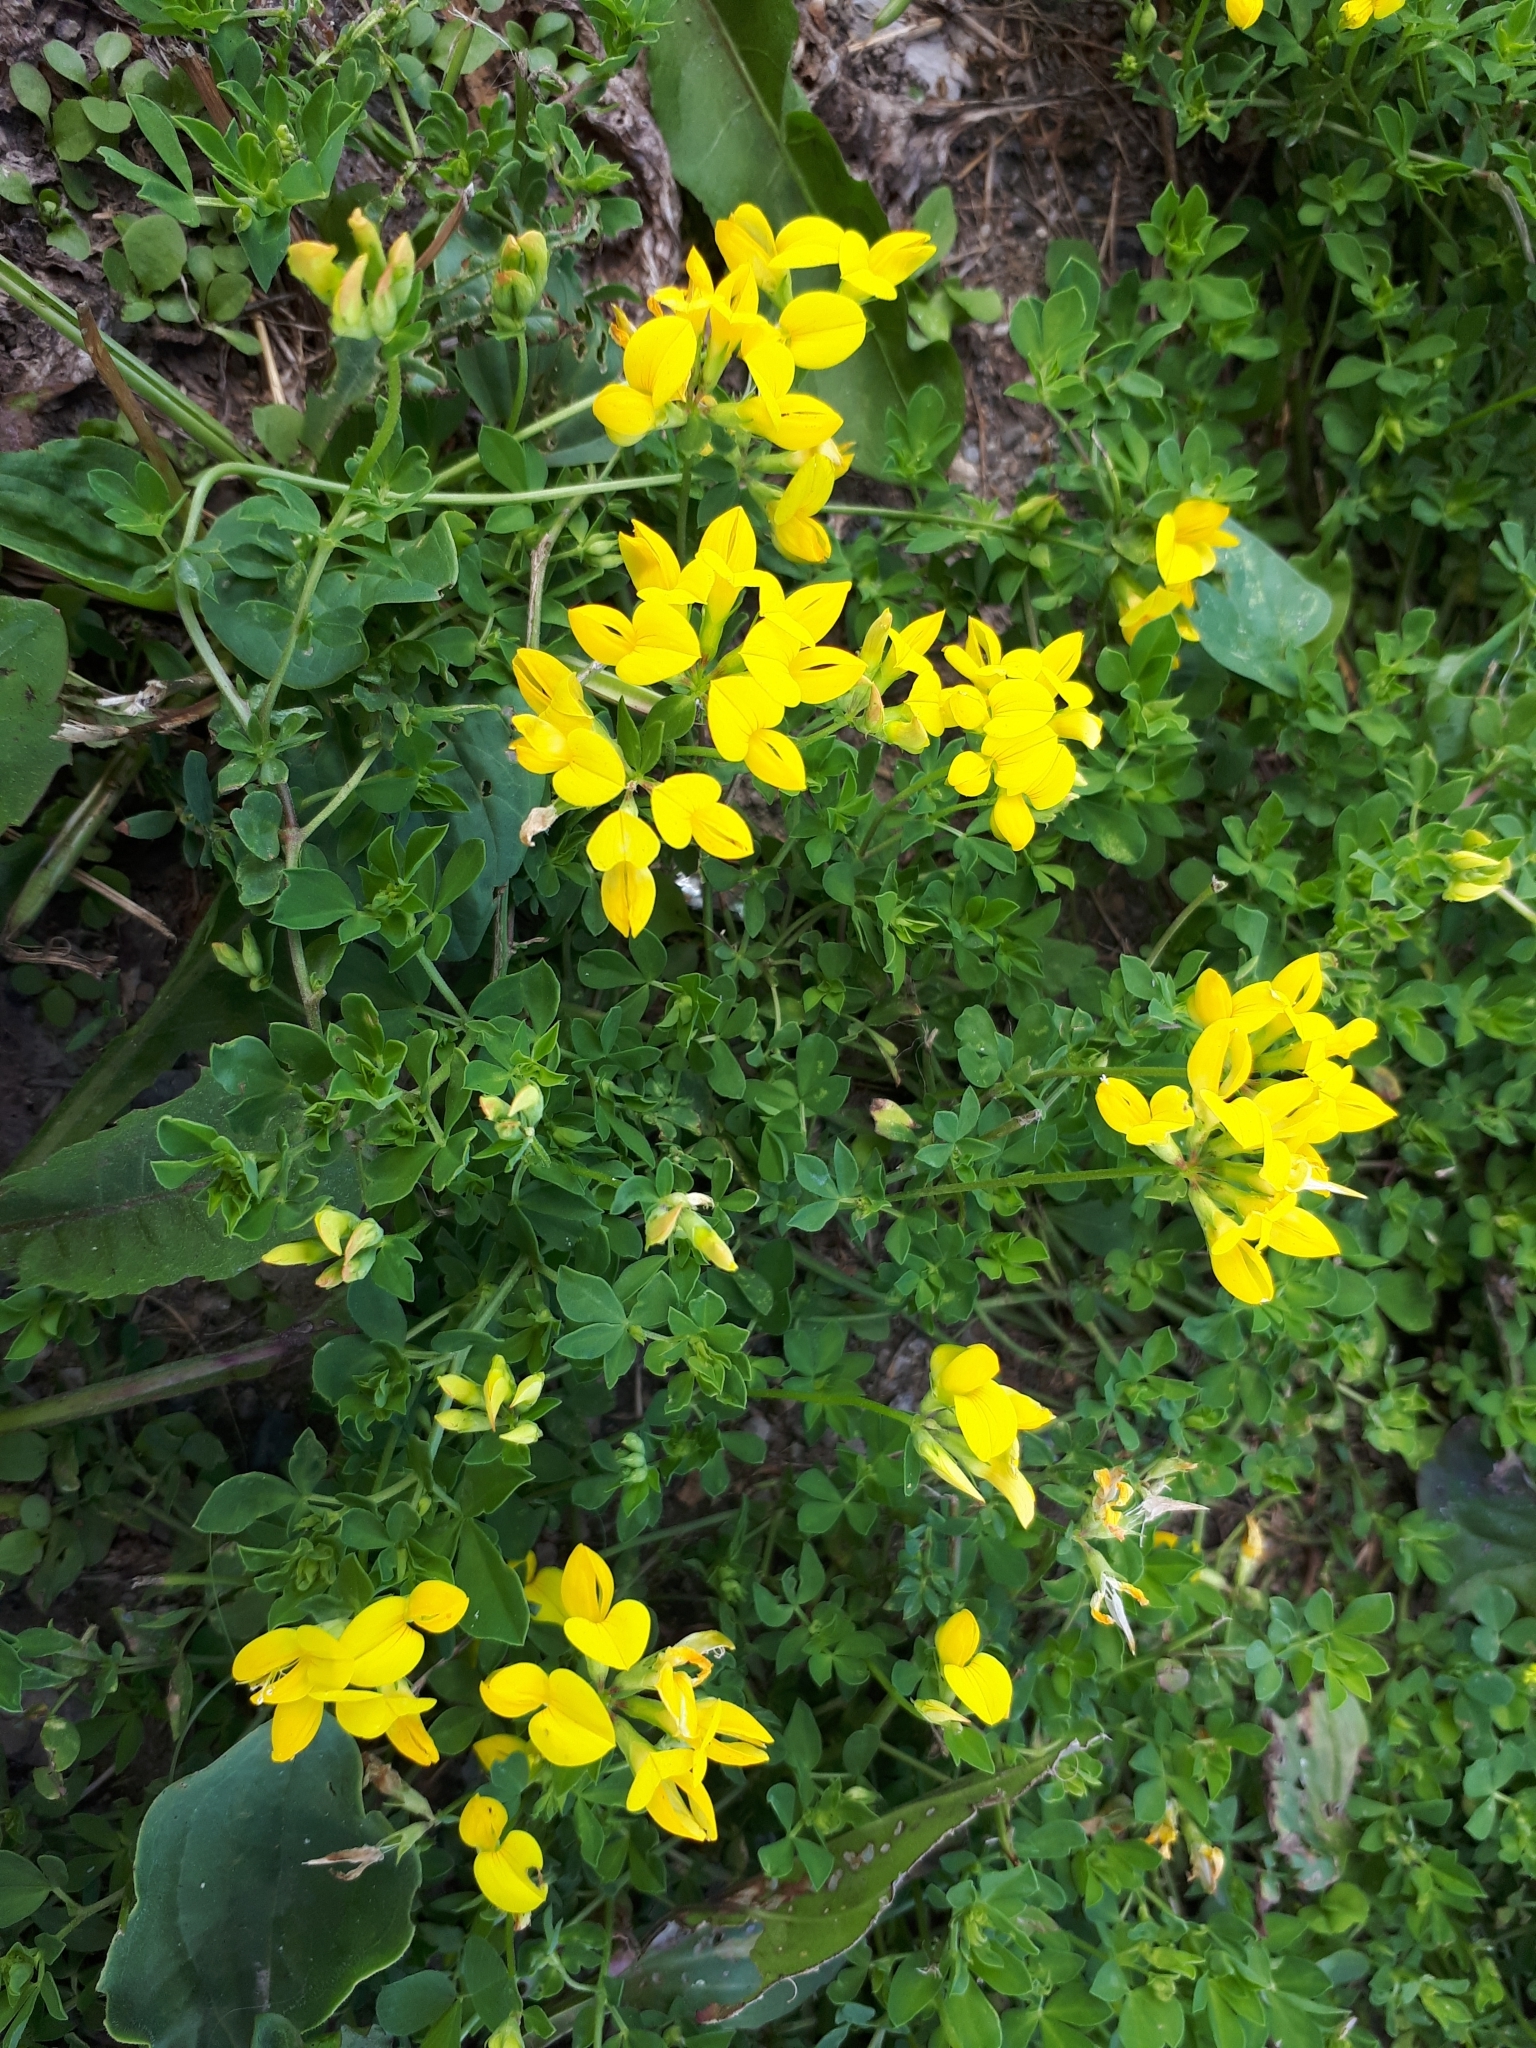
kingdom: Plantae
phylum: Tracheophyta
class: Magnoliopsida
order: Fabales
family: Fabaceae
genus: Lotus
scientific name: Lotus corniculatus
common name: Common bird's-foot-trefoil
